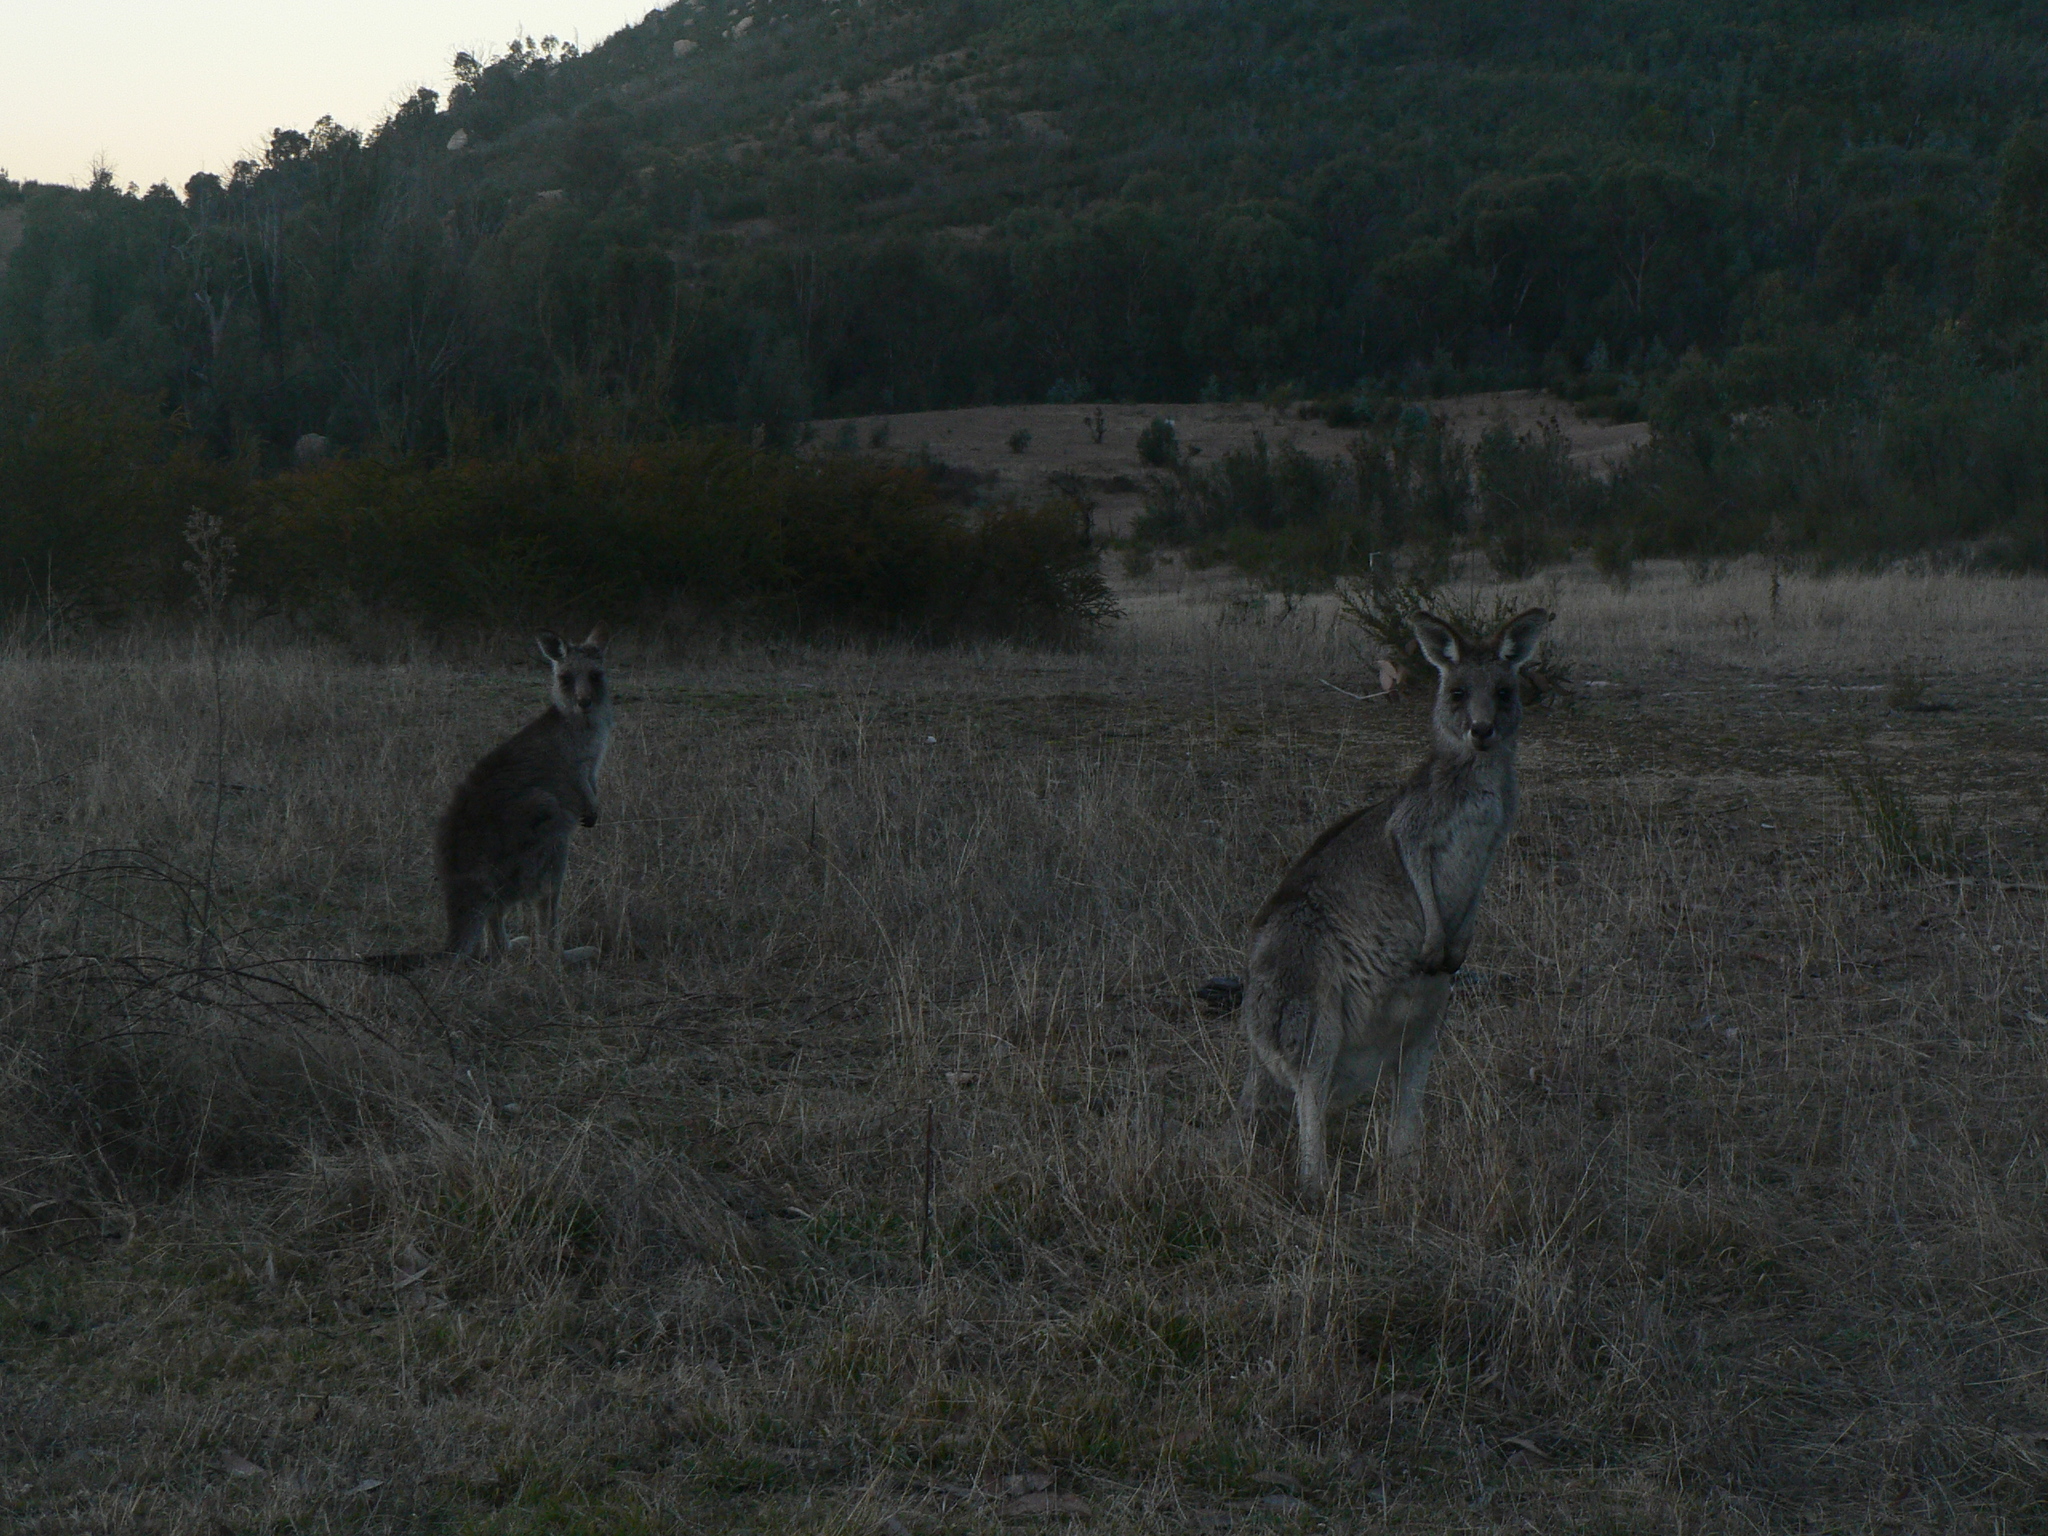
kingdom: Animalia
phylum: Chordata
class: Mammalia
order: Diprotodontia
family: Macropodidae
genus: Macropus
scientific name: Macropus giganteus
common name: Eastern grey kangaroo
